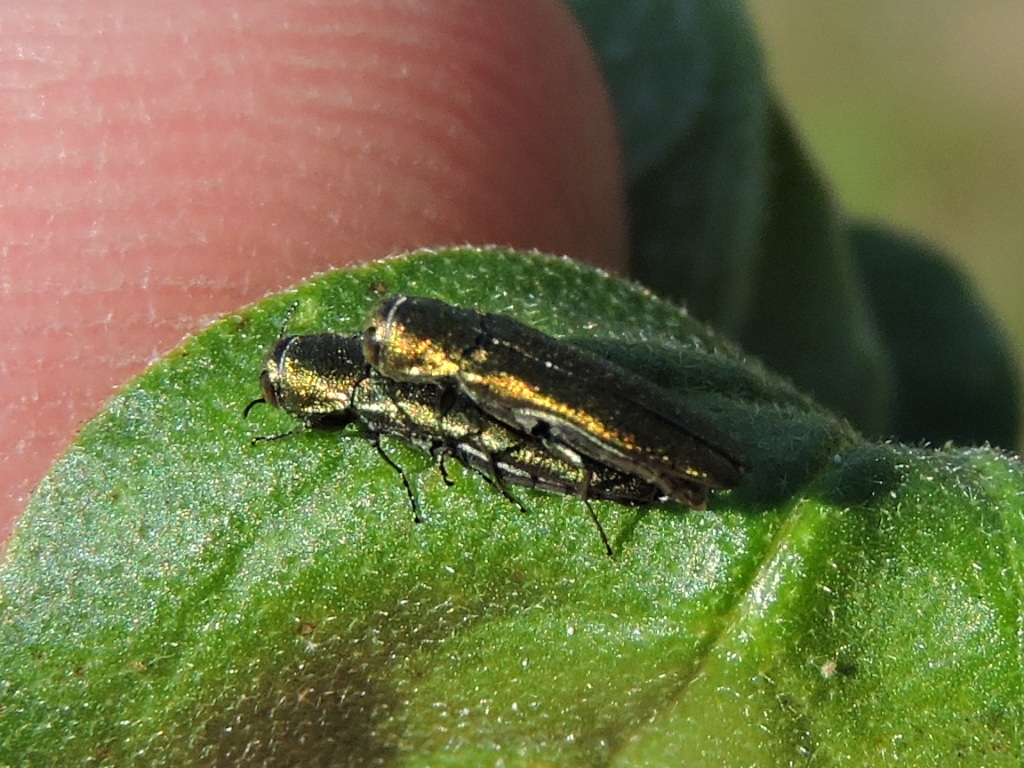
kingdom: Animalia
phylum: Arthropoda
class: Insecta
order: Coleoptera
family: Buprestidae
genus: Agrilus
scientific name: Agrilus lacustris
